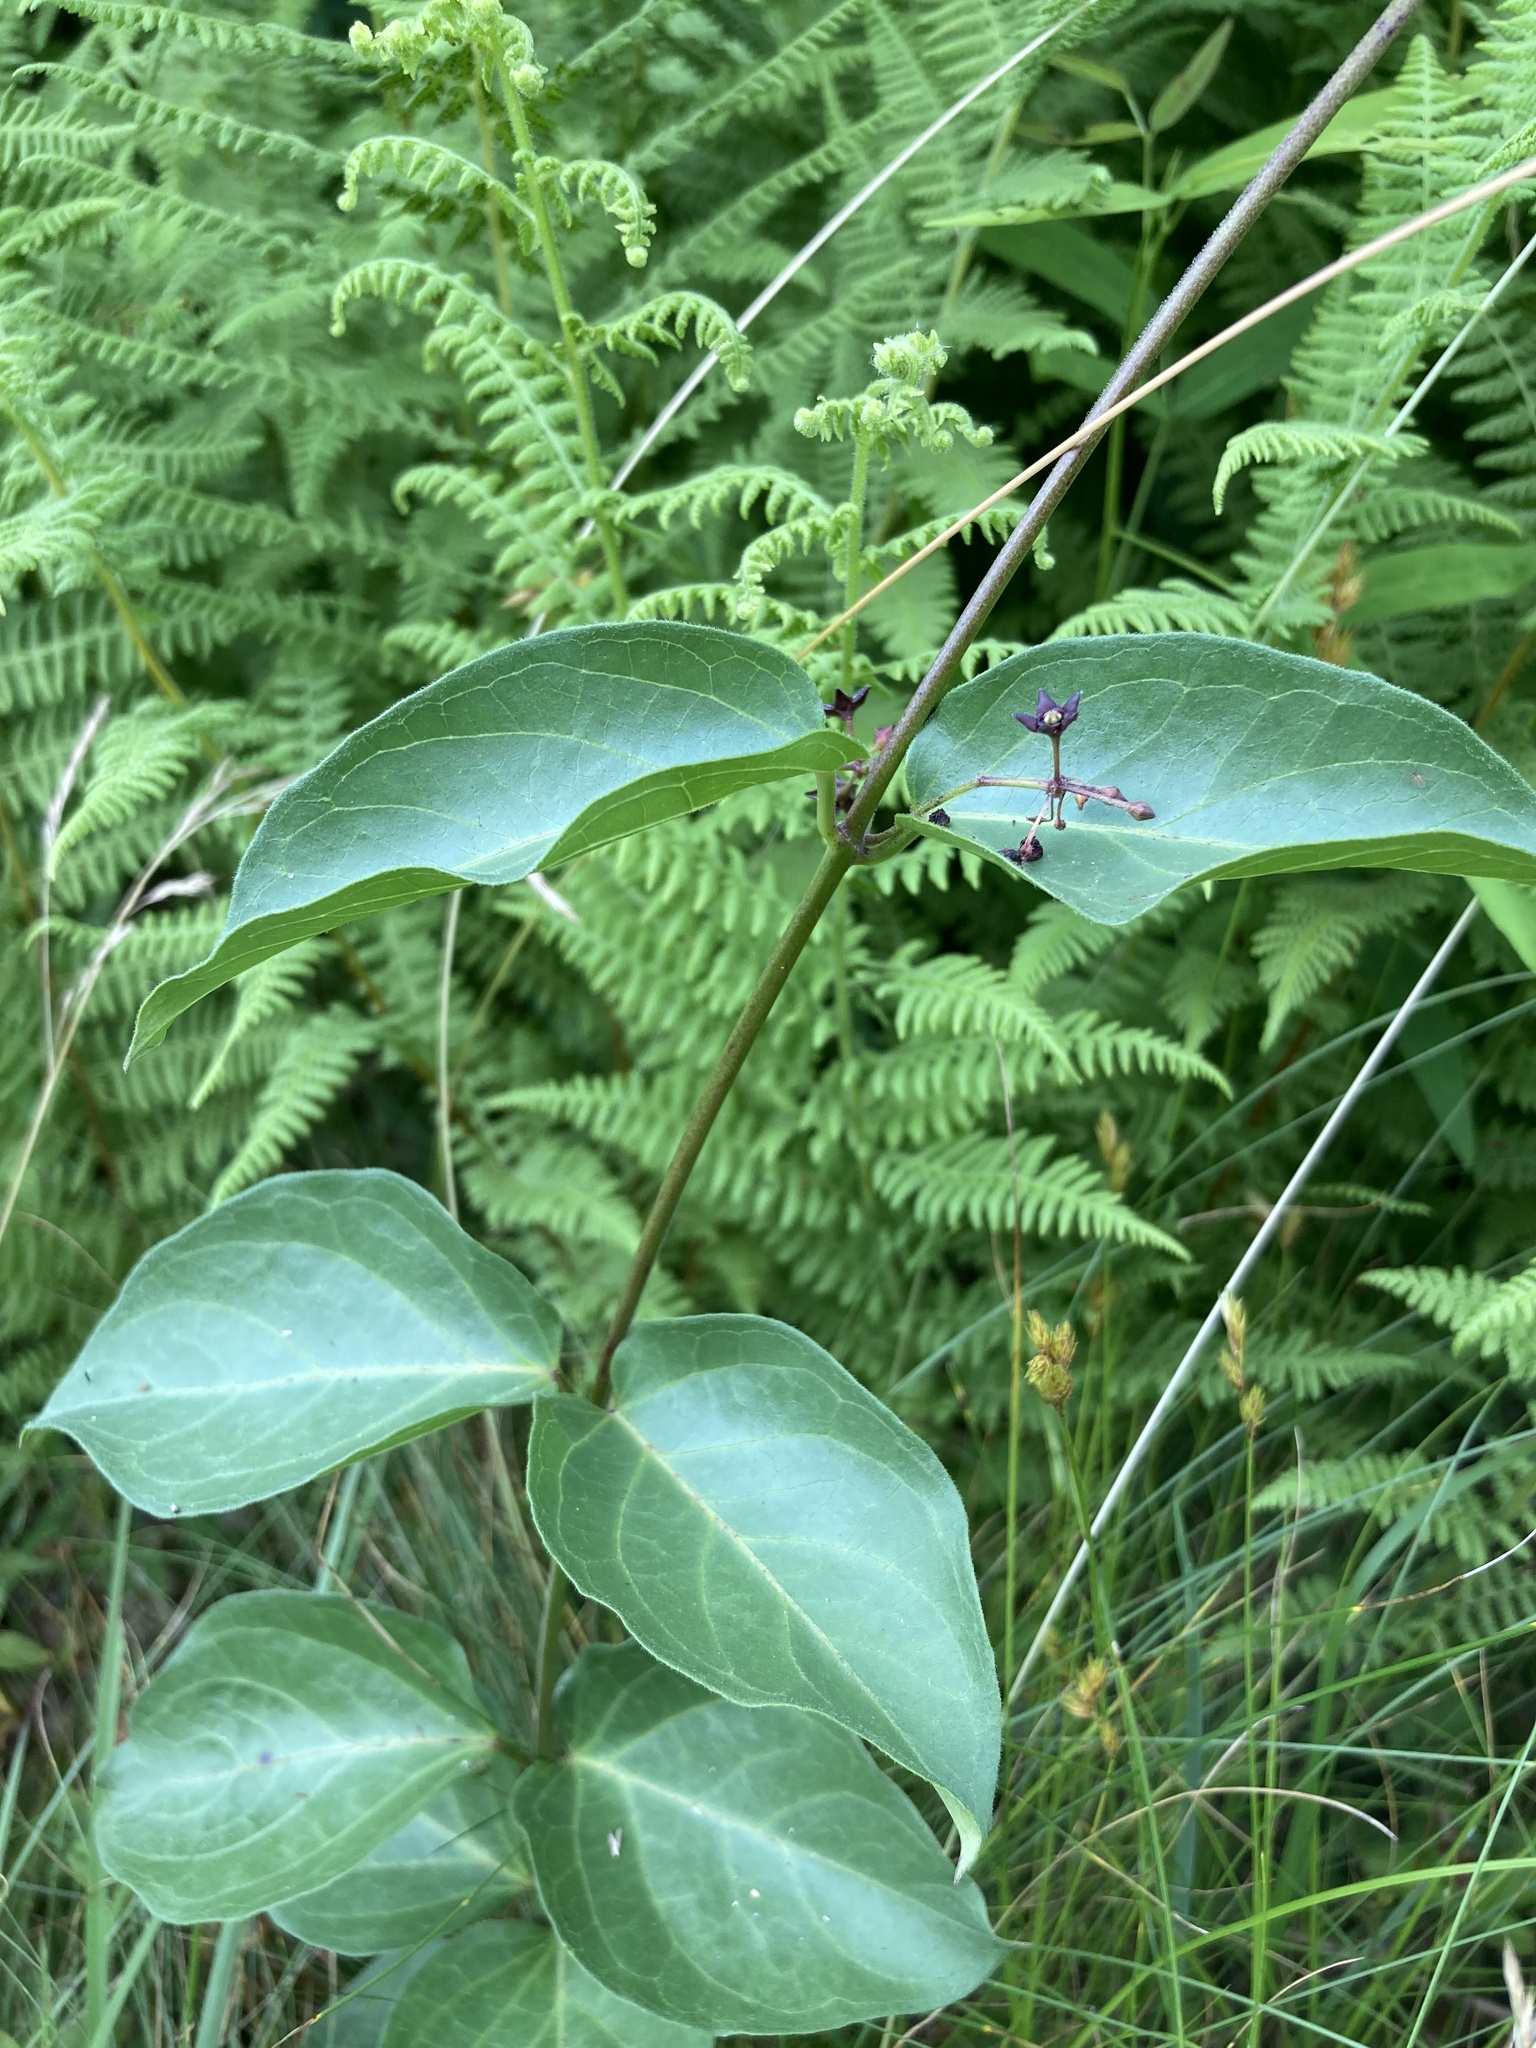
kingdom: Plantae
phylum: Tracheophyta
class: Magnoliopsida
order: Gentianales
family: Apocynaceae
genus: Vincetoxicum
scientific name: Vincetoxicum nigrum
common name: Black swallow-wort
